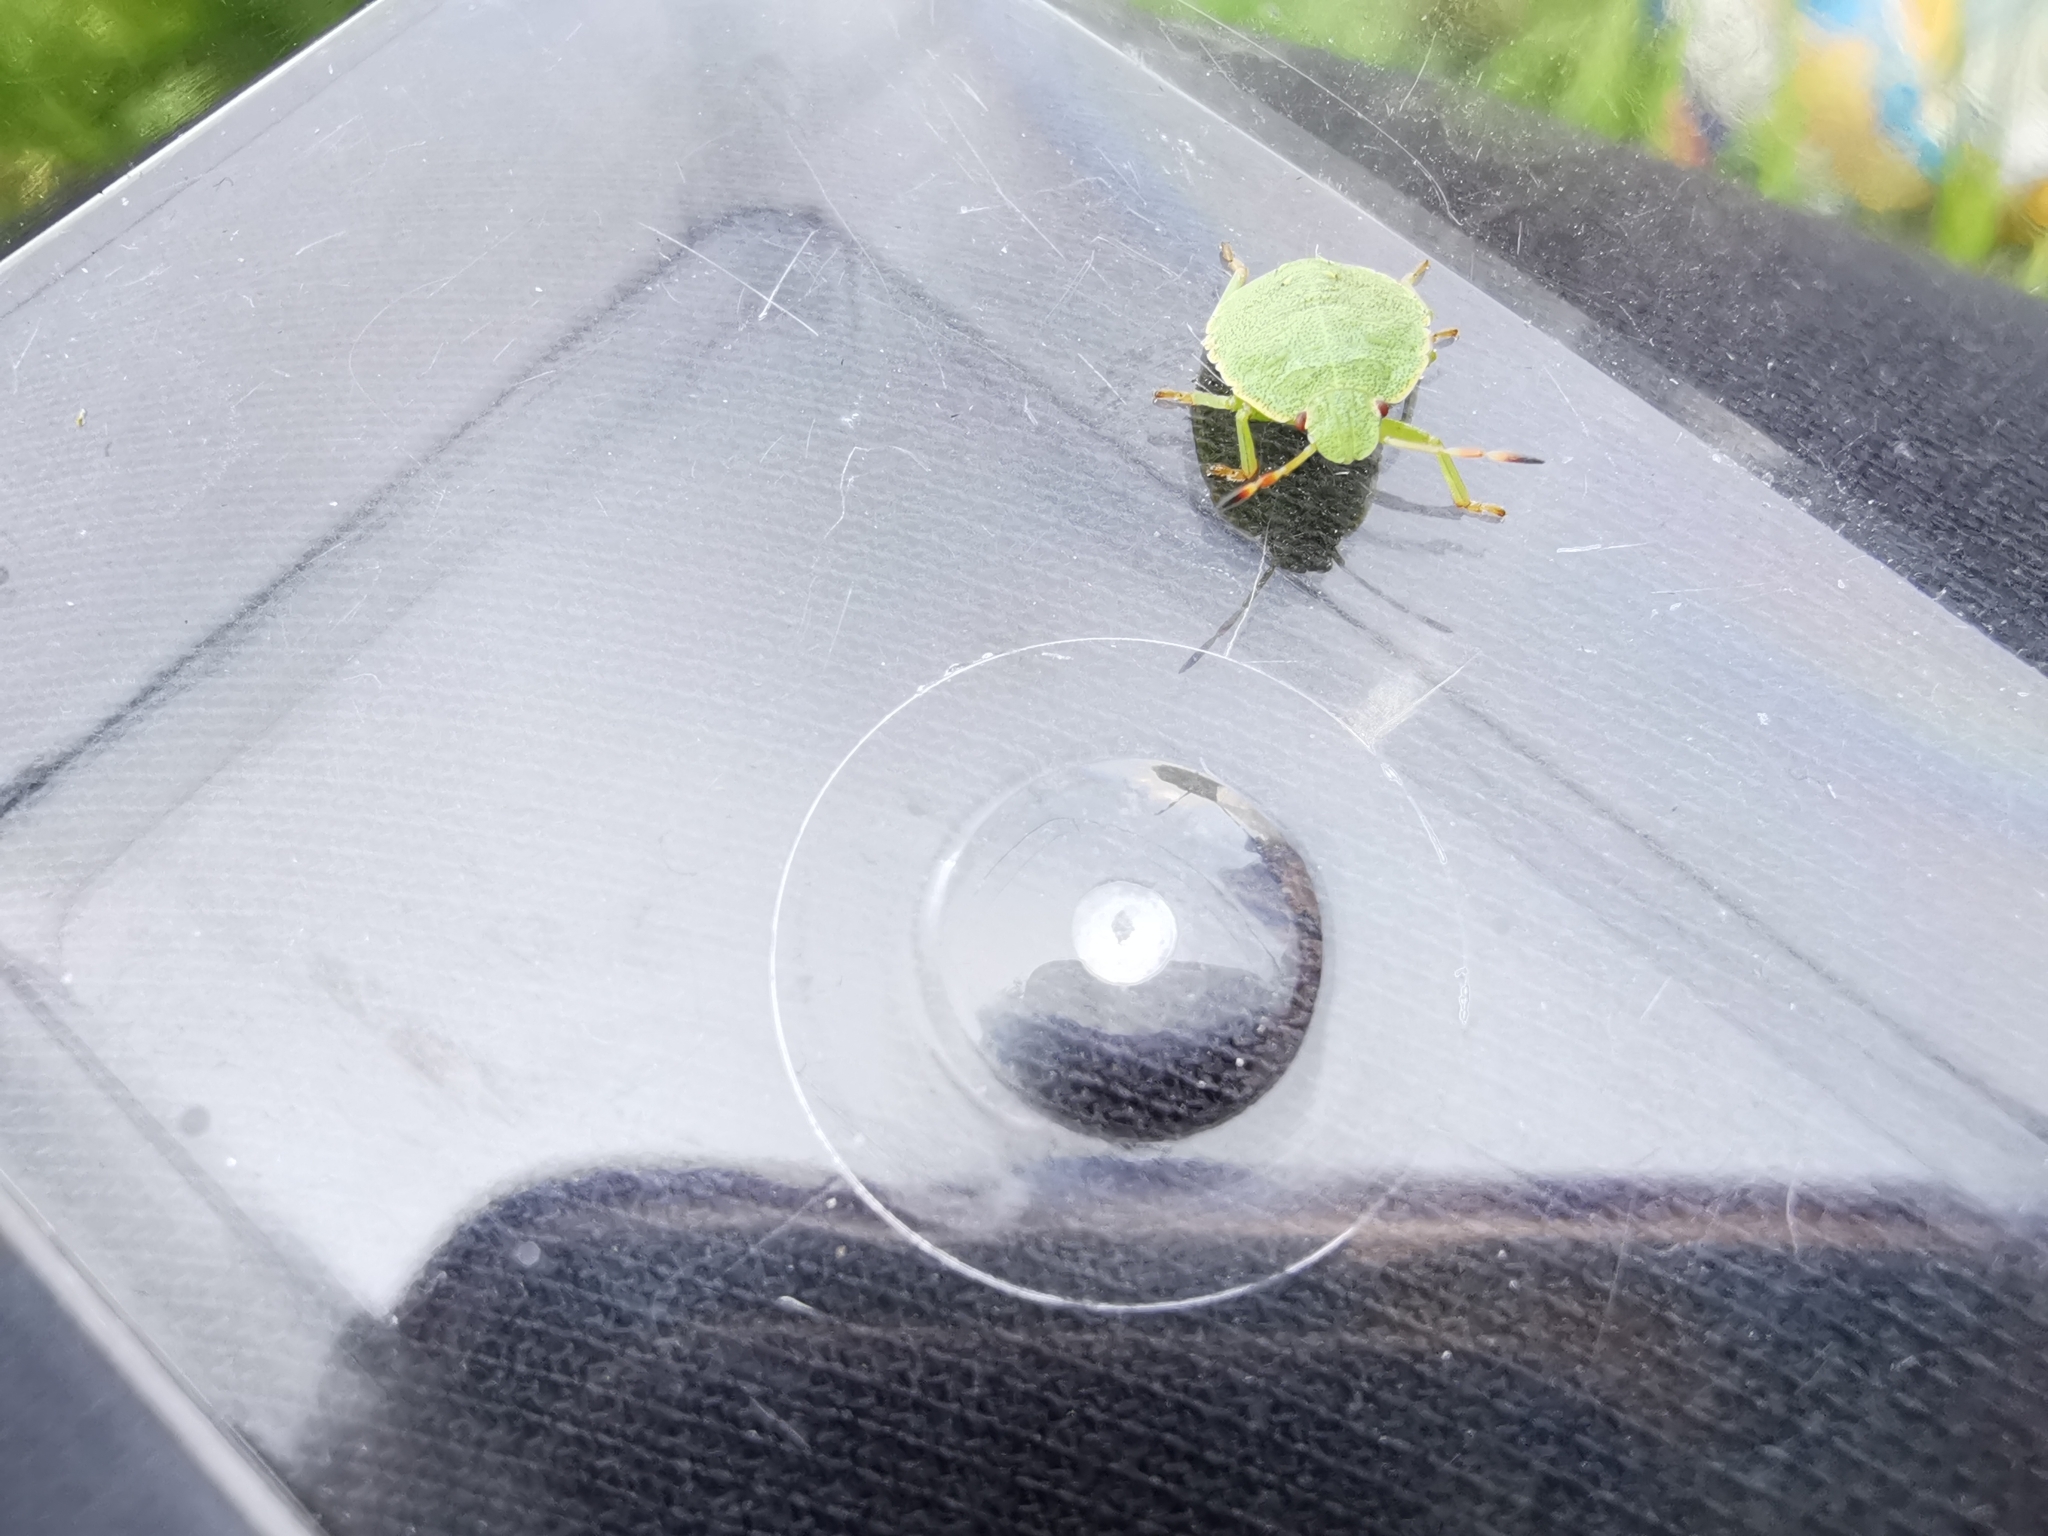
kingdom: Animalia
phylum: Arthropoda
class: Insecta
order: Hemiptera
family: Pentatomidae
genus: Palomena
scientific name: Palomena prasina
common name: Green shieldbug
